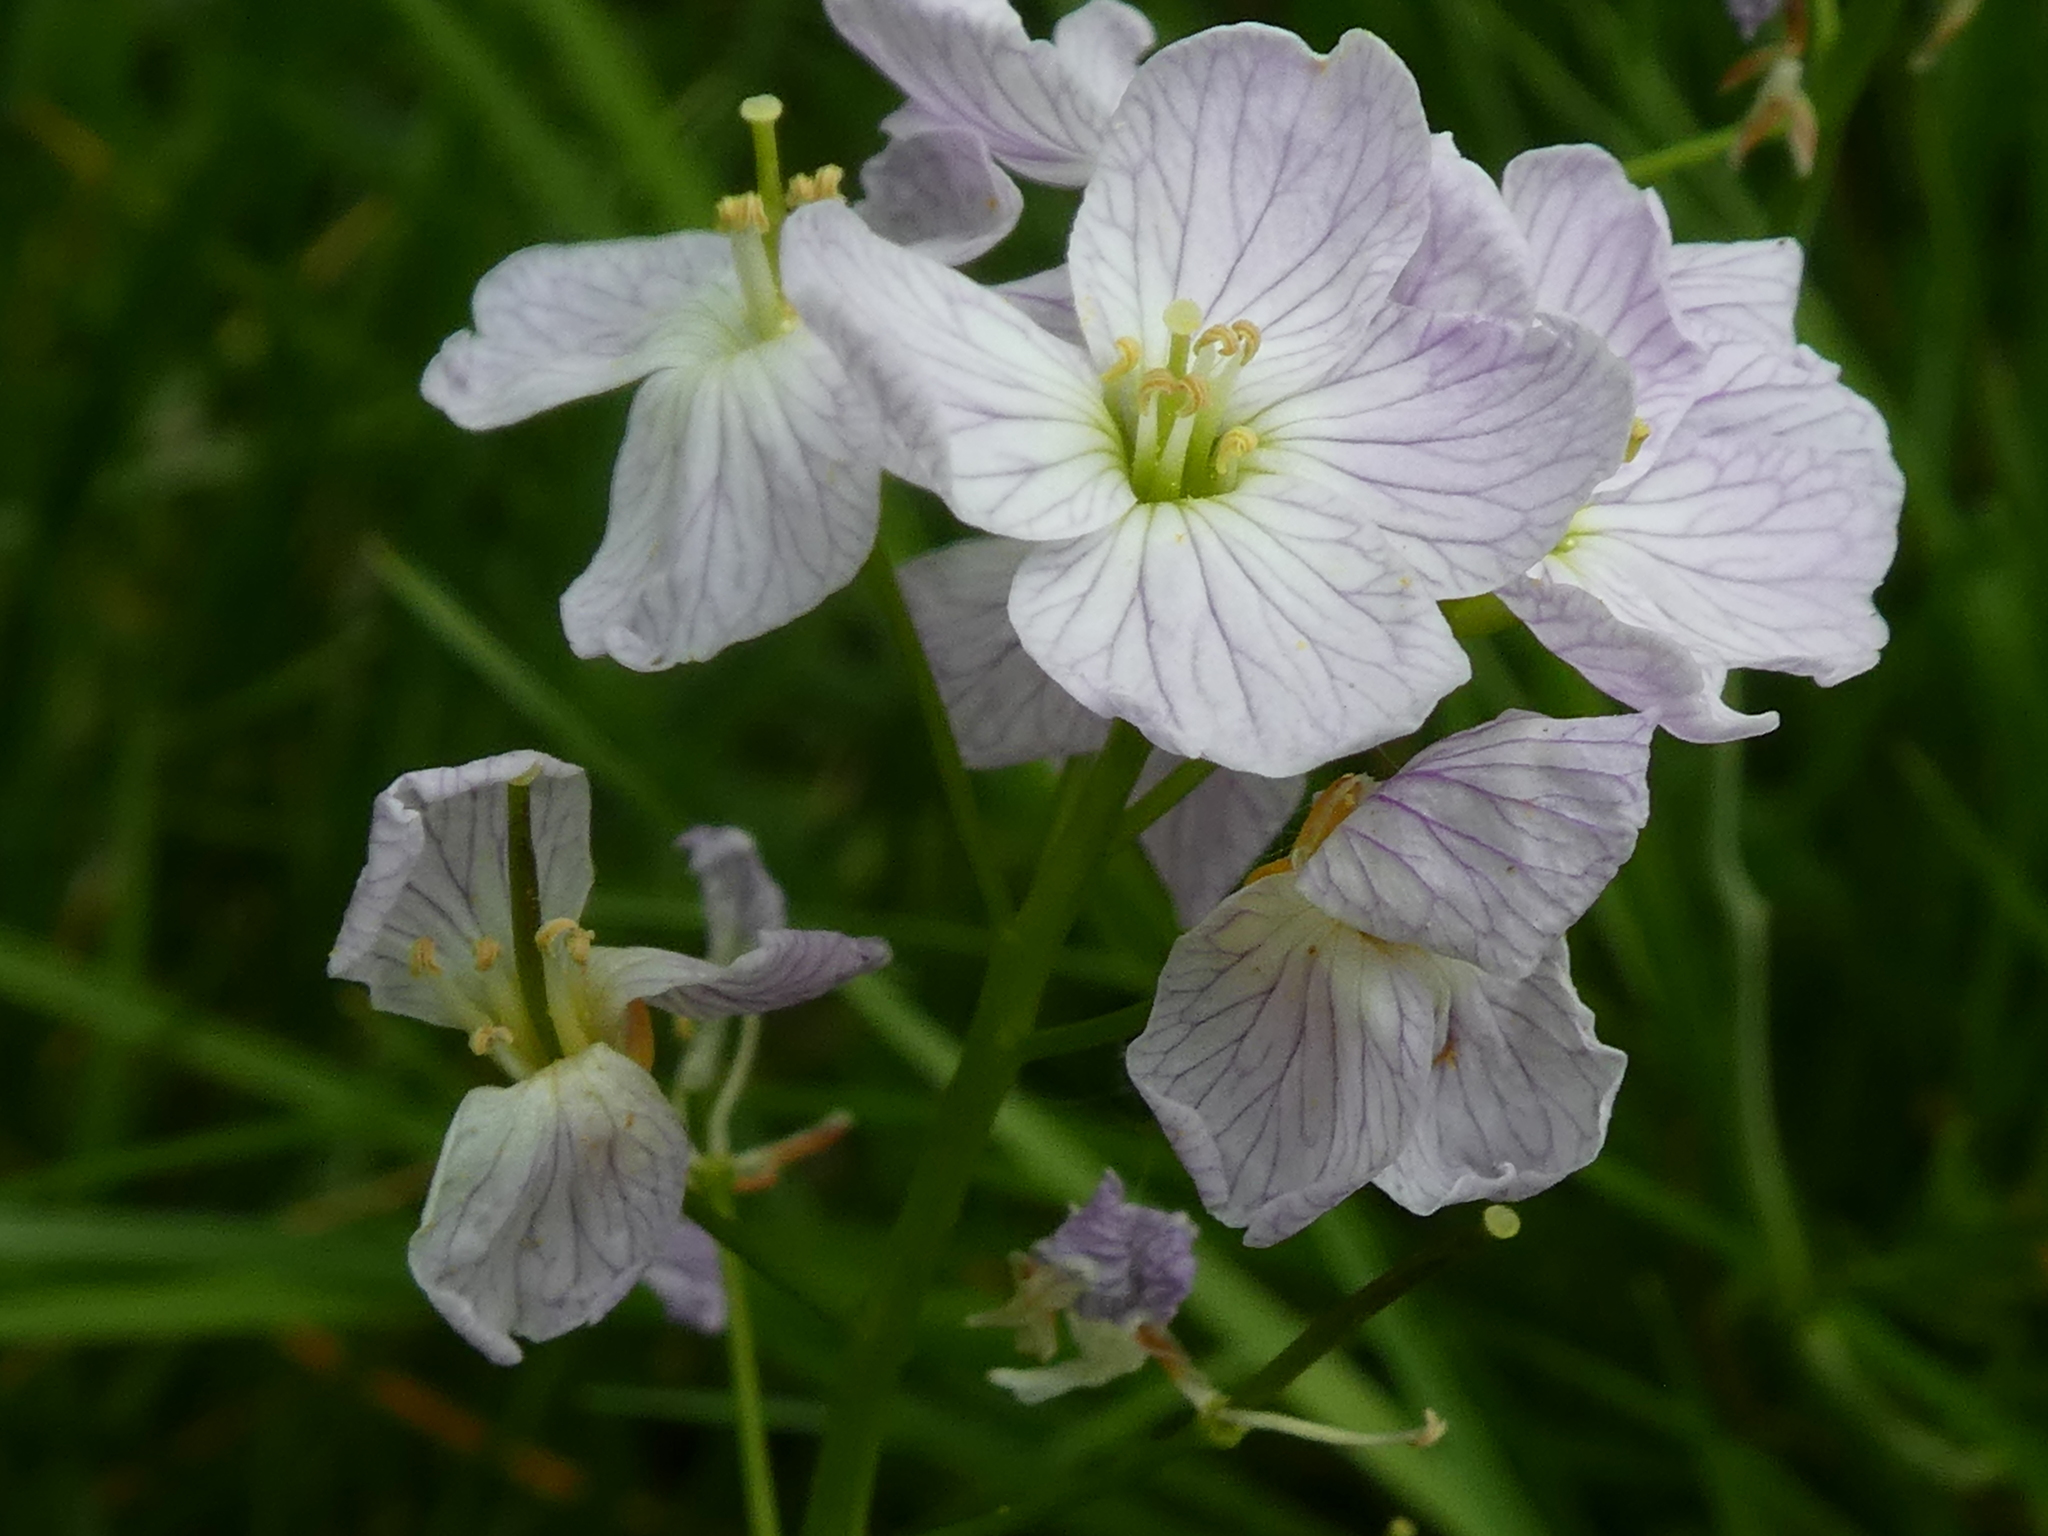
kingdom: Plantae
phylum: Tracheophyta
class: Magnoliopsida
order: Brassicales
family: Brassicaceae
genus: Cardamine
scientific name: Cardamine pratensis
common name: Cuckoo flower
